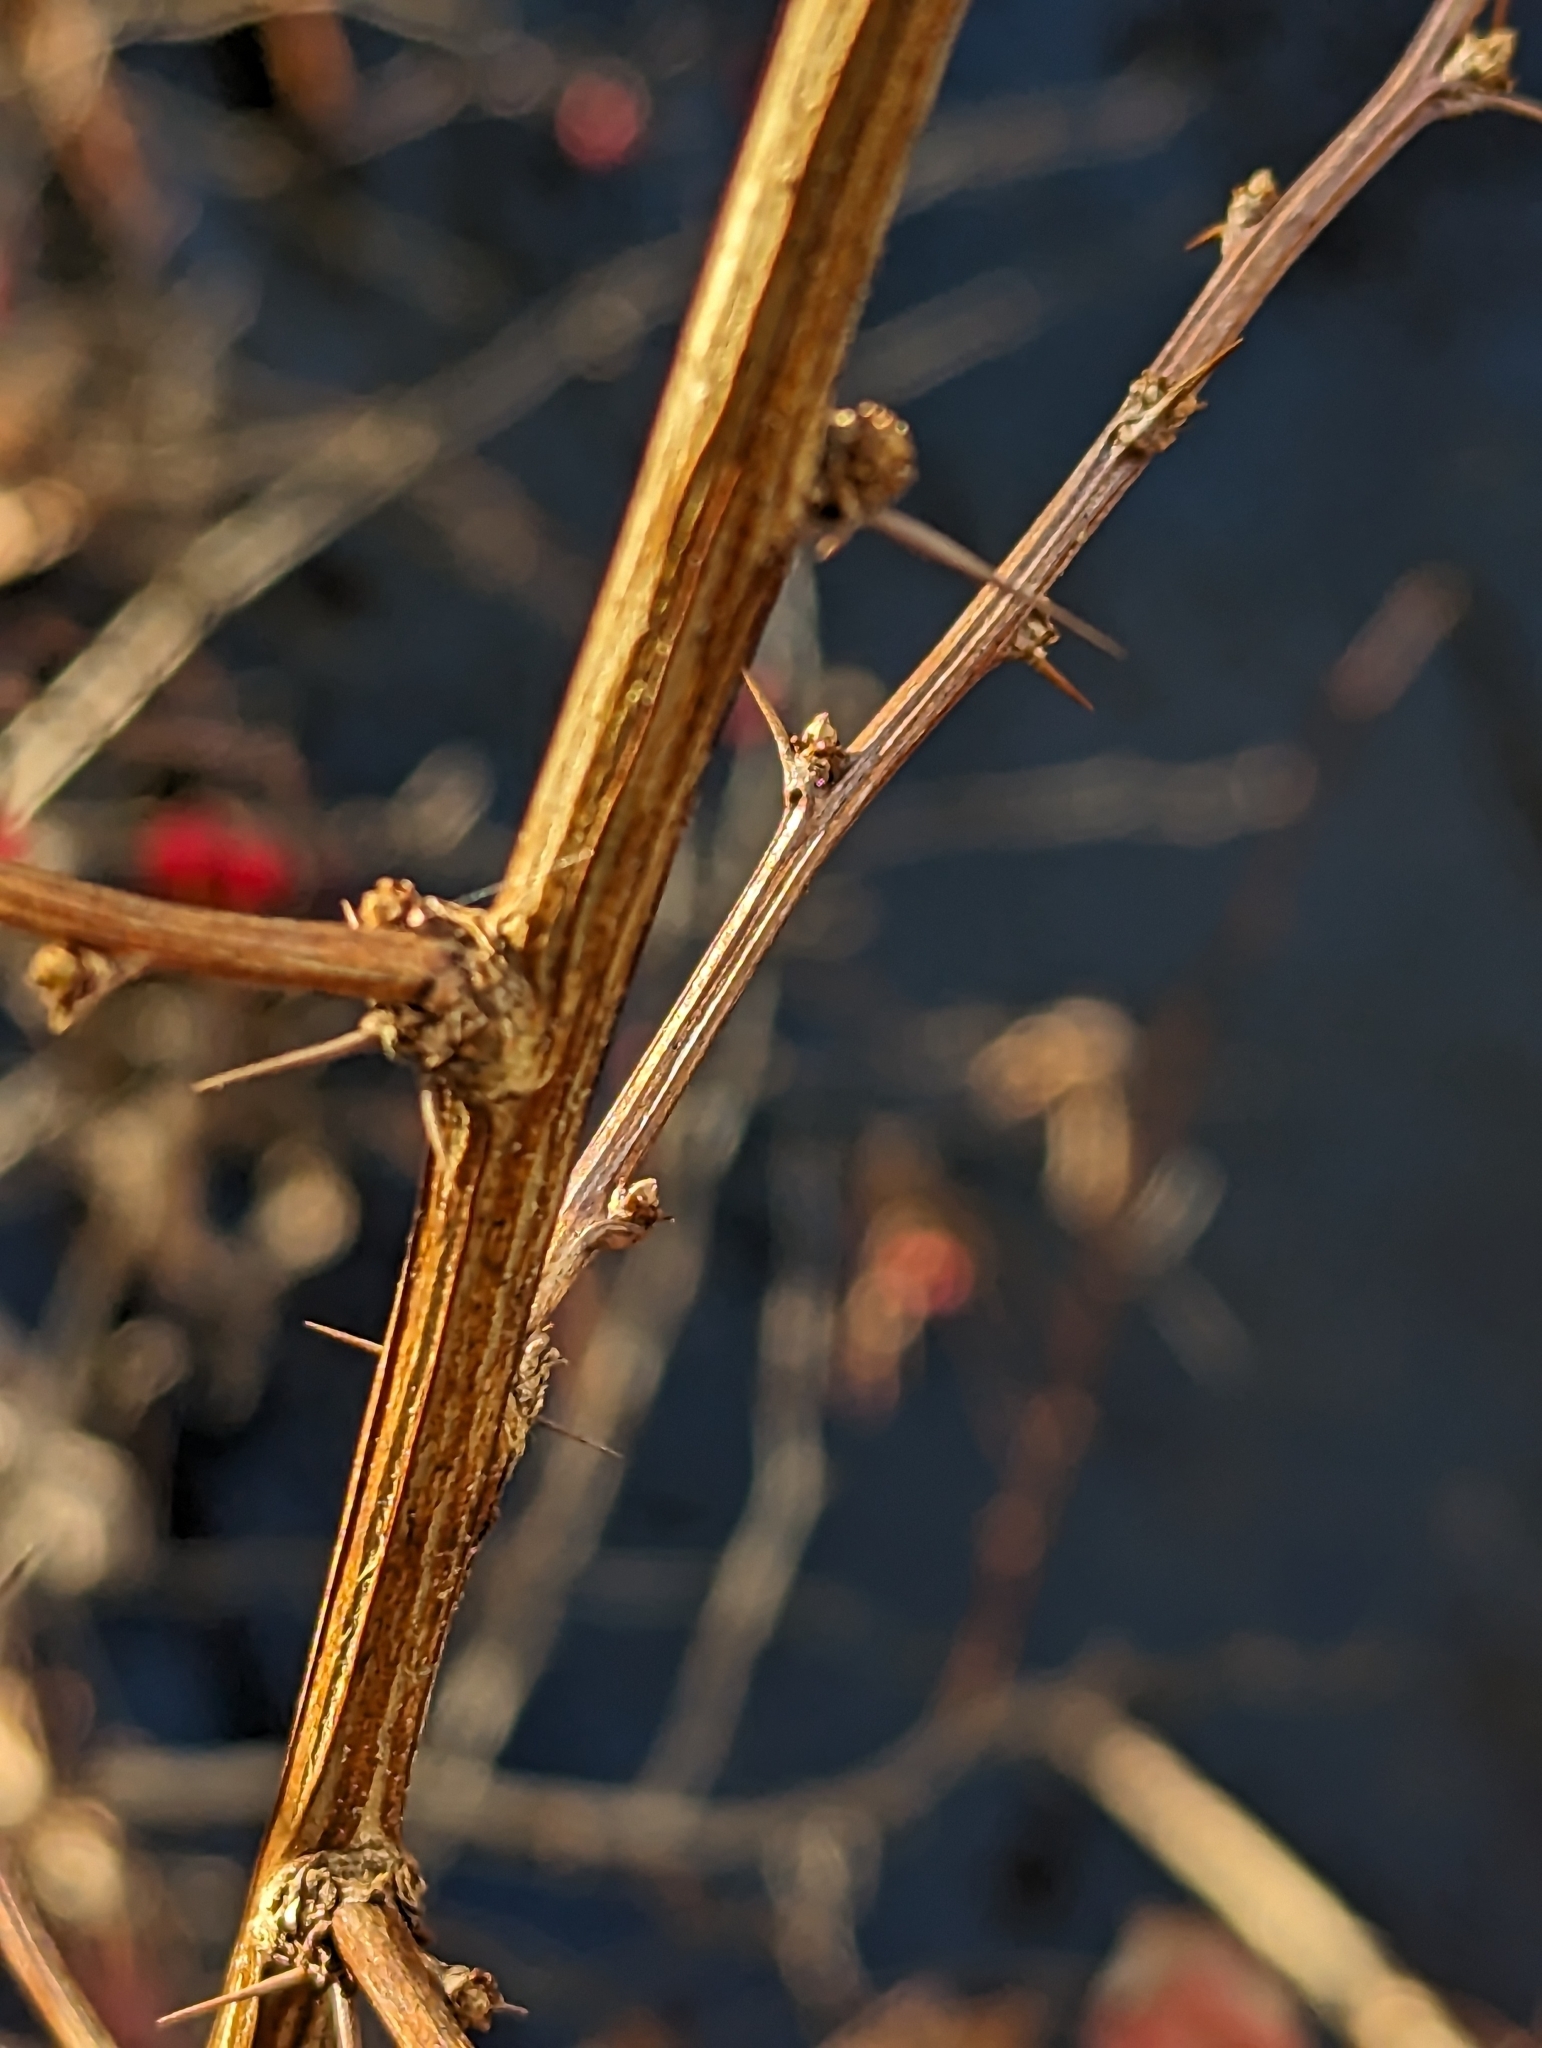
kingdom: Plantae
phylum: Tracheophyta
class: Magnoliopsida
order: Ranunculales
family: Berberidaceae
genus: Berberis
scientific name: Berberis thunbergii
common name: Japanese barberry
